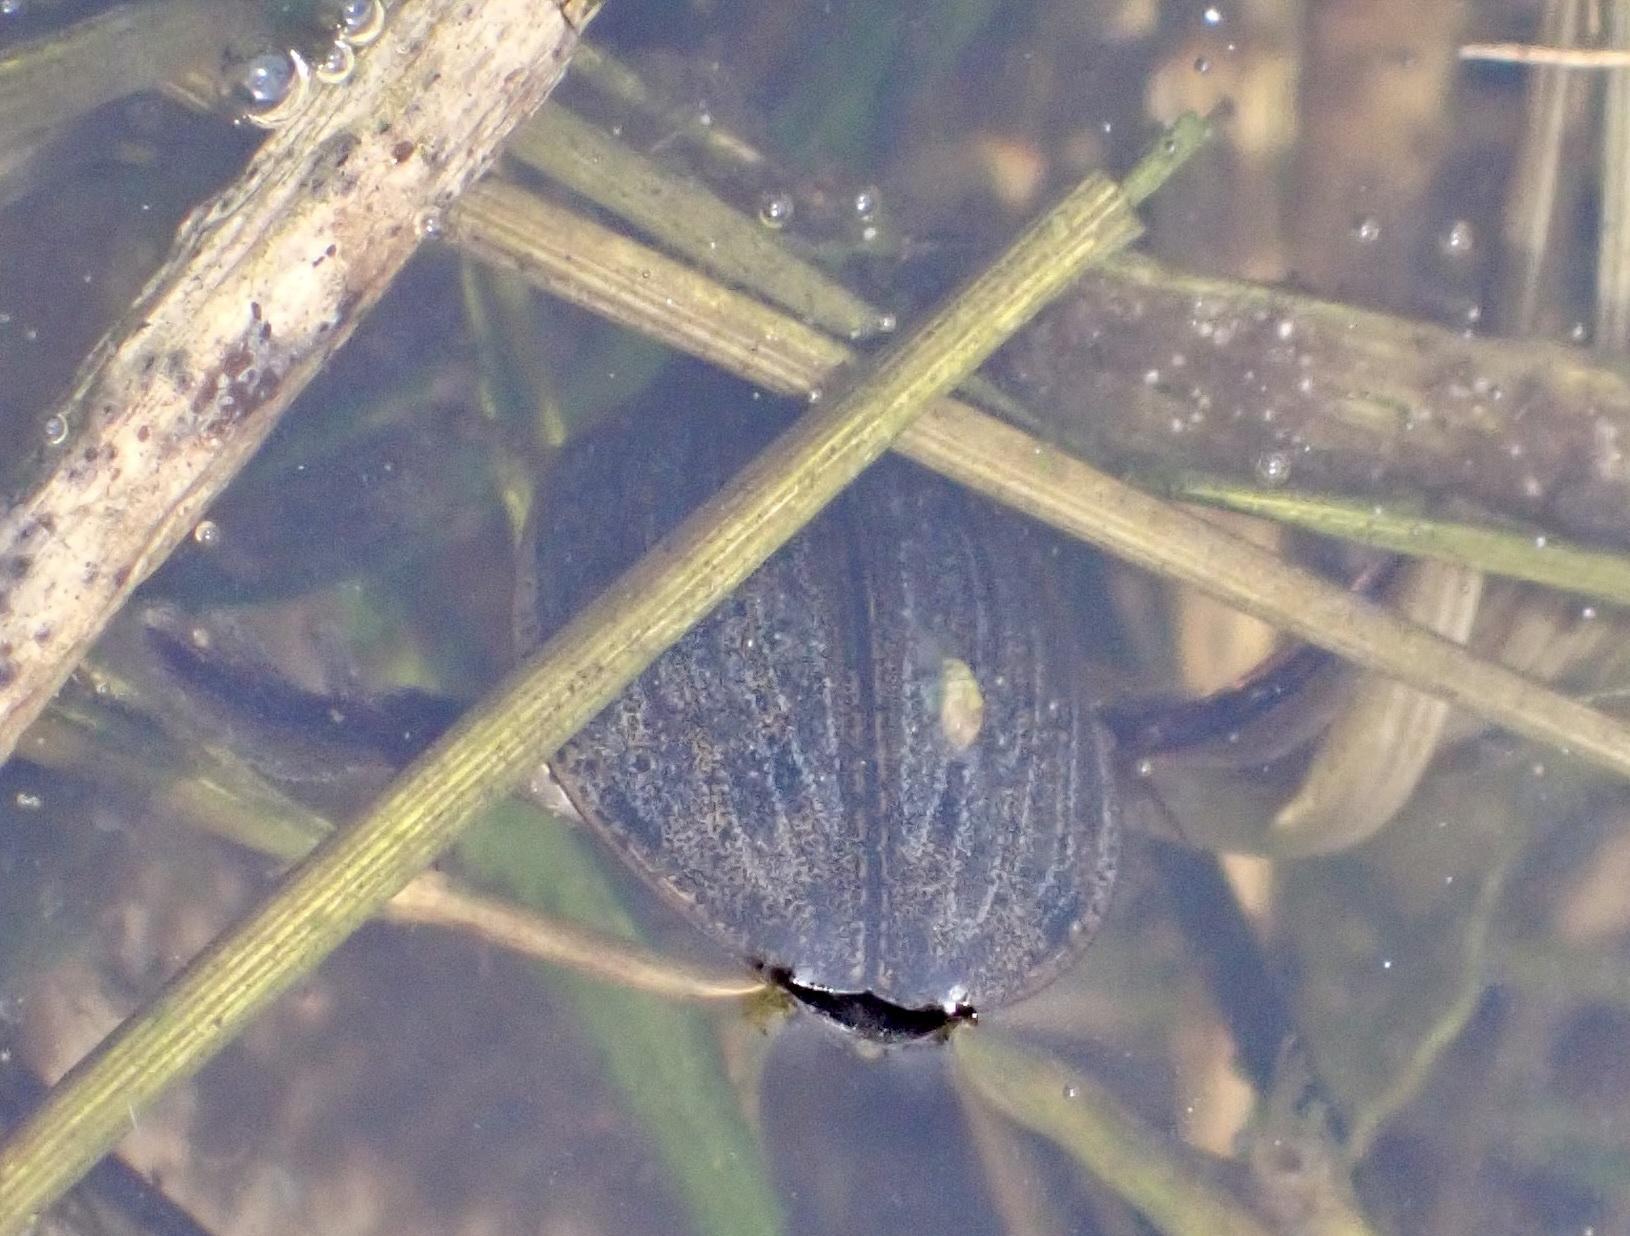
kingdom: Animalia
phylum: Arthropoda
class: Insecta
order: Coleoptera
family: Dytiscidae
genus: Acilius
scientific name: Acilius
